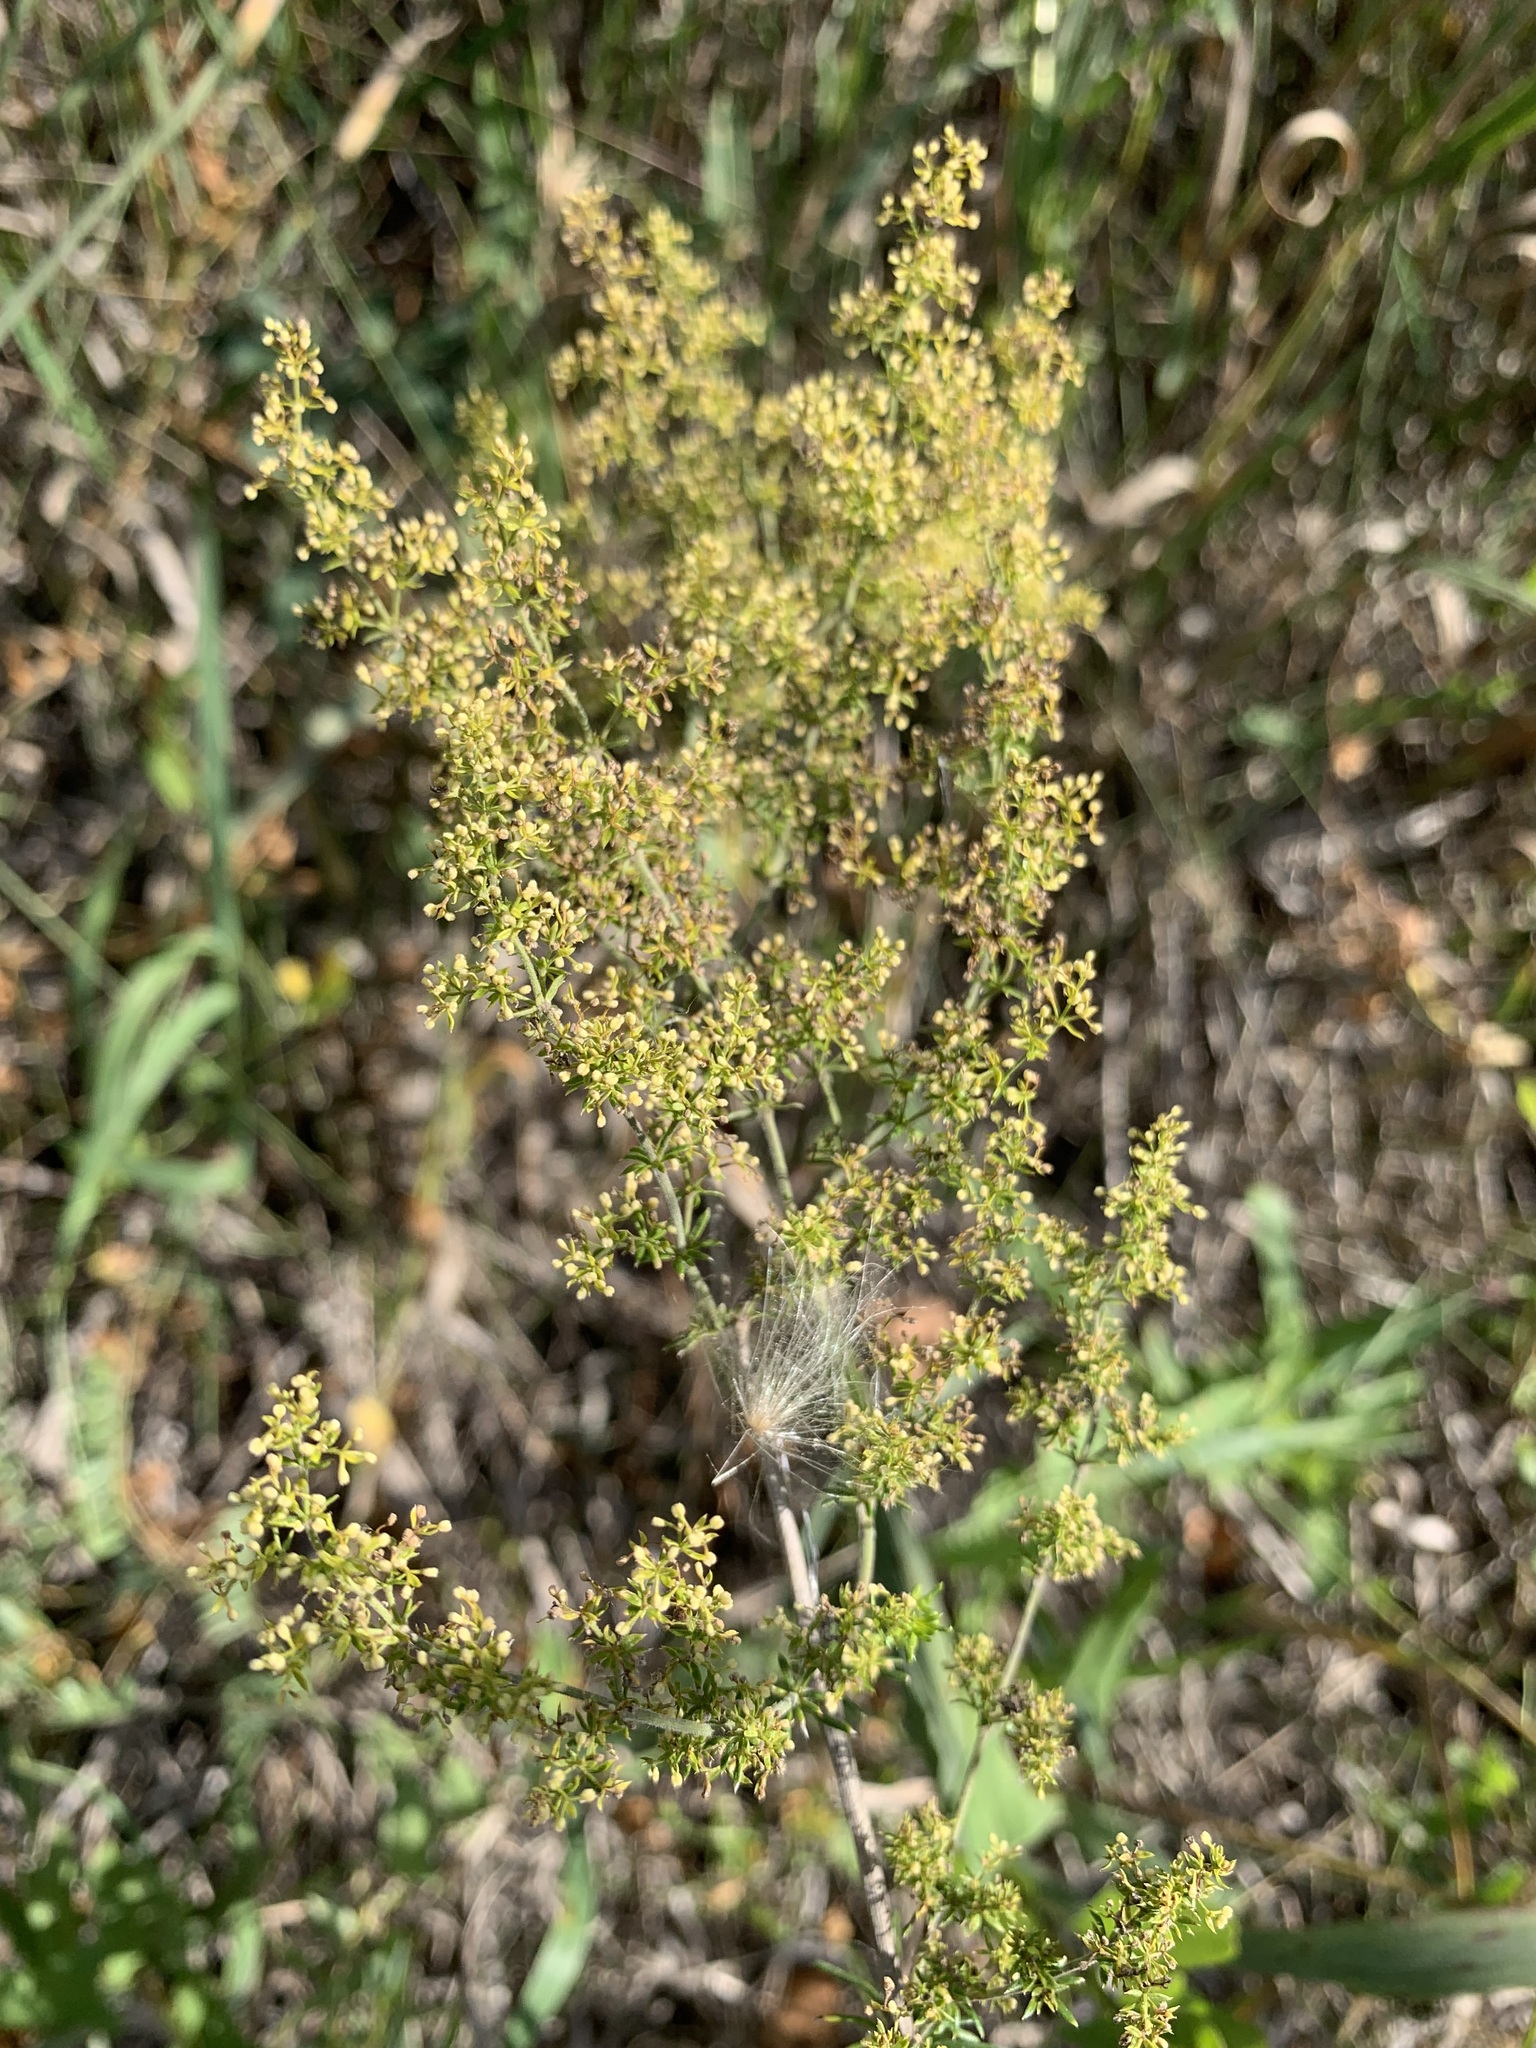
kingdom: Plantae
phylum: Tracheophyta
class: Magnoliopsida
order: Gentianales
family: Rubiaceae
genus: Galium
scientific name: Galium verum
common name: Lady's bedstraw
